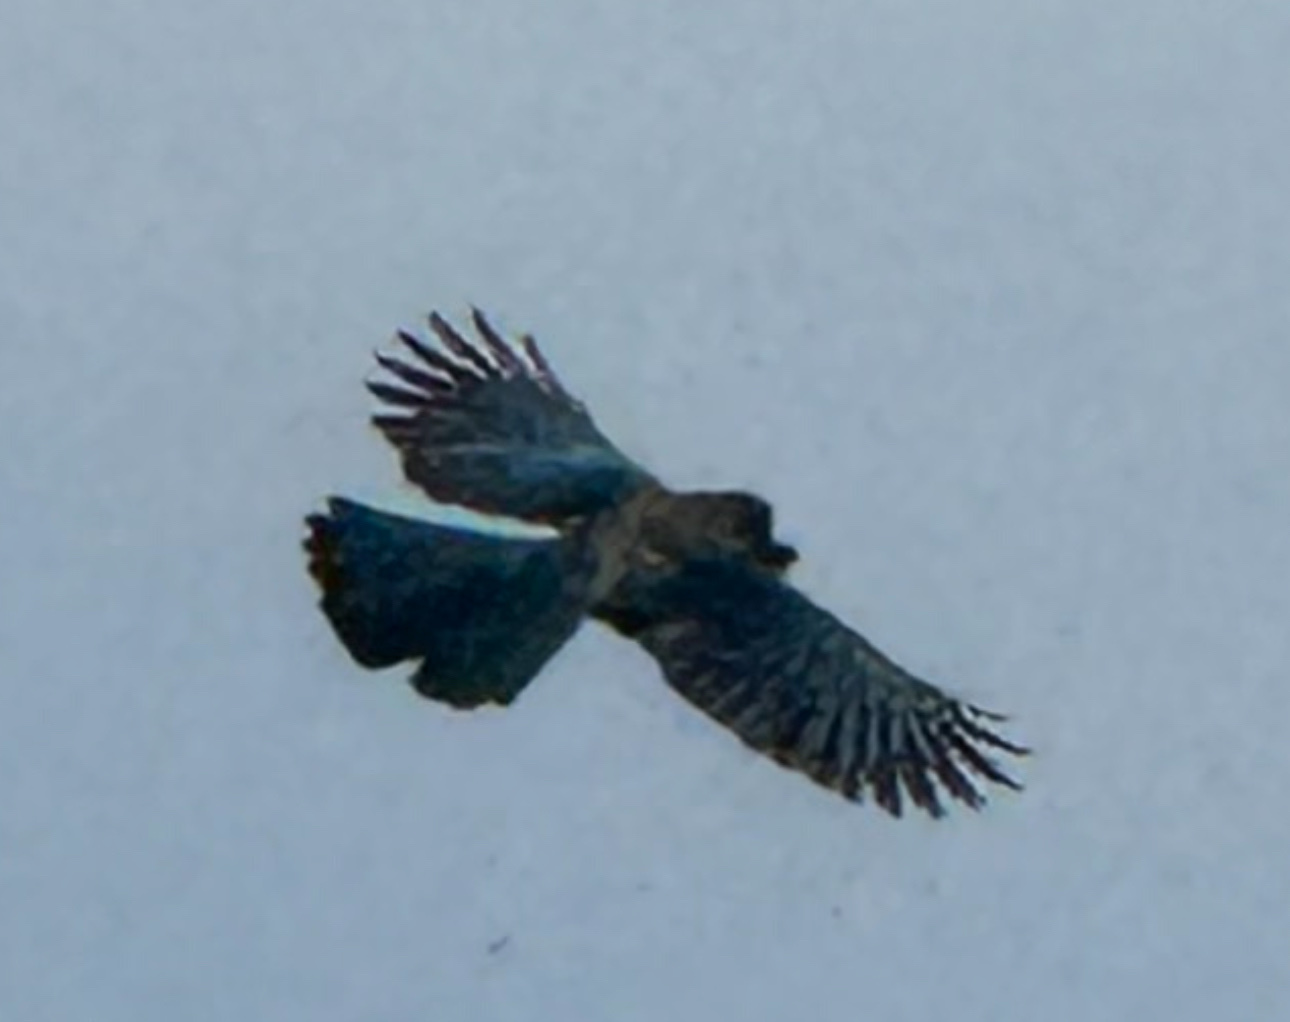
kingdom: Animalia
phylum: Chordata
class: Aves
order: Passeriformes
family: Corvidae
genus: Aphelocoma
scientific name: Aphelocoma californica
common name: California scrub-jay
